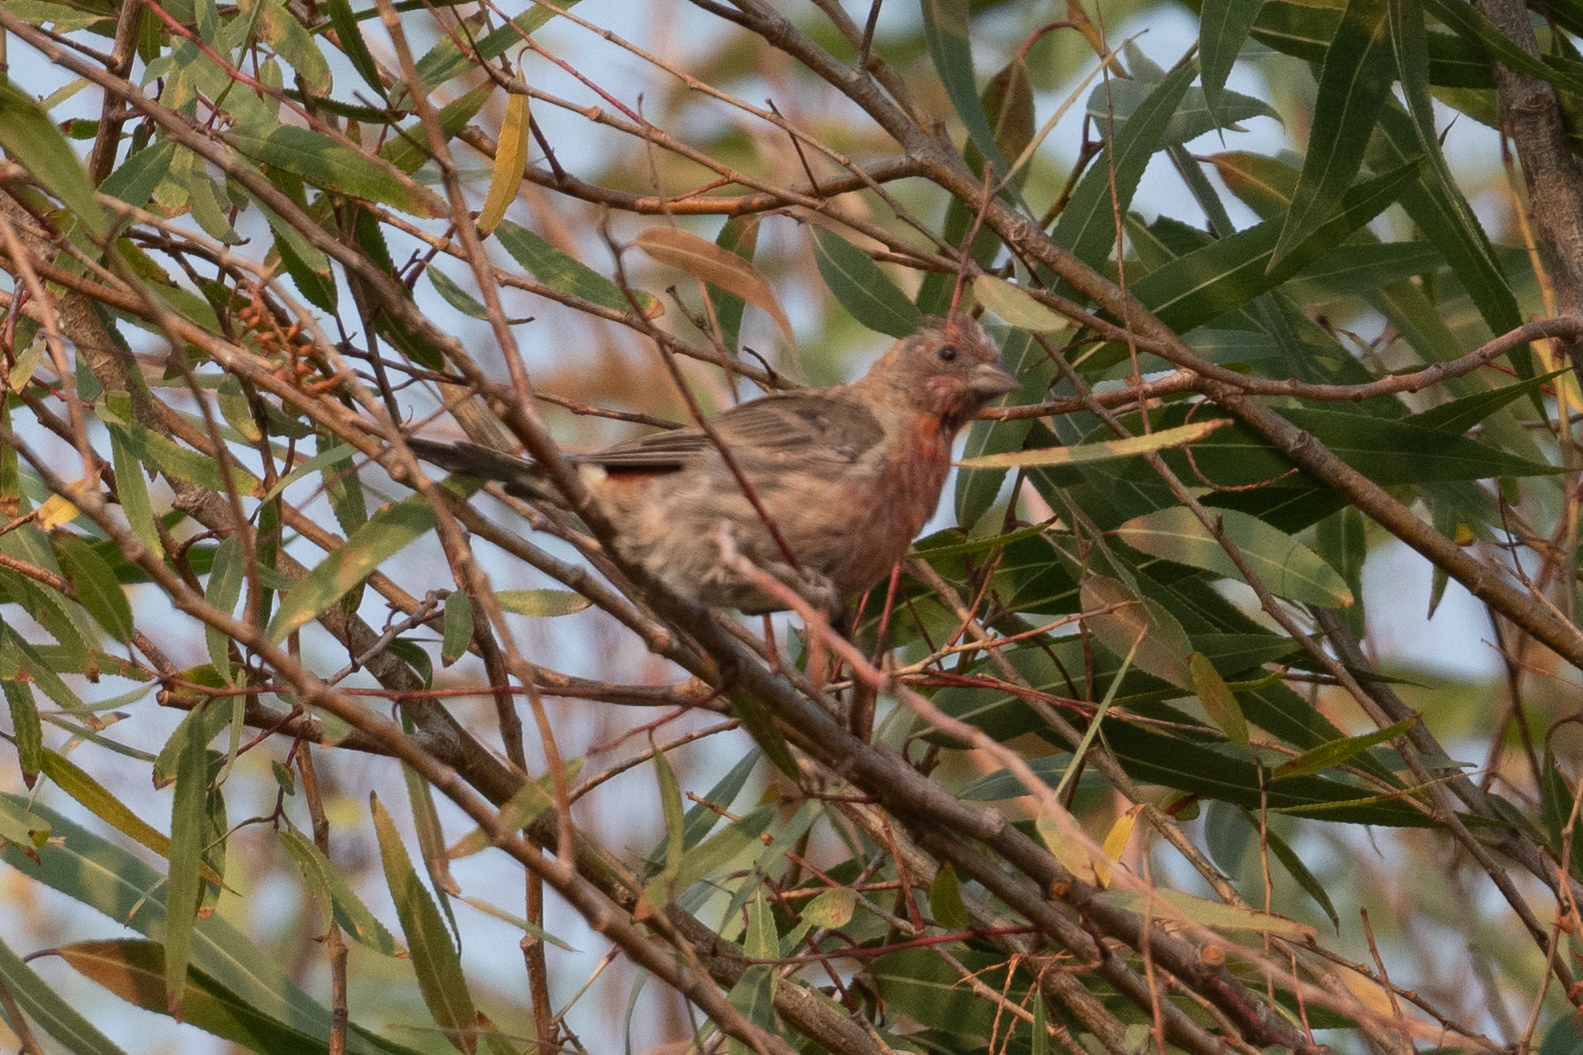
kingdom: Animalia
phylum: Chordata
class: Aves
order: Passeriformes
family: Fringillidae
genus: Haemorhous
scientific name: Haemorhous mexicanus
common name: House finch
